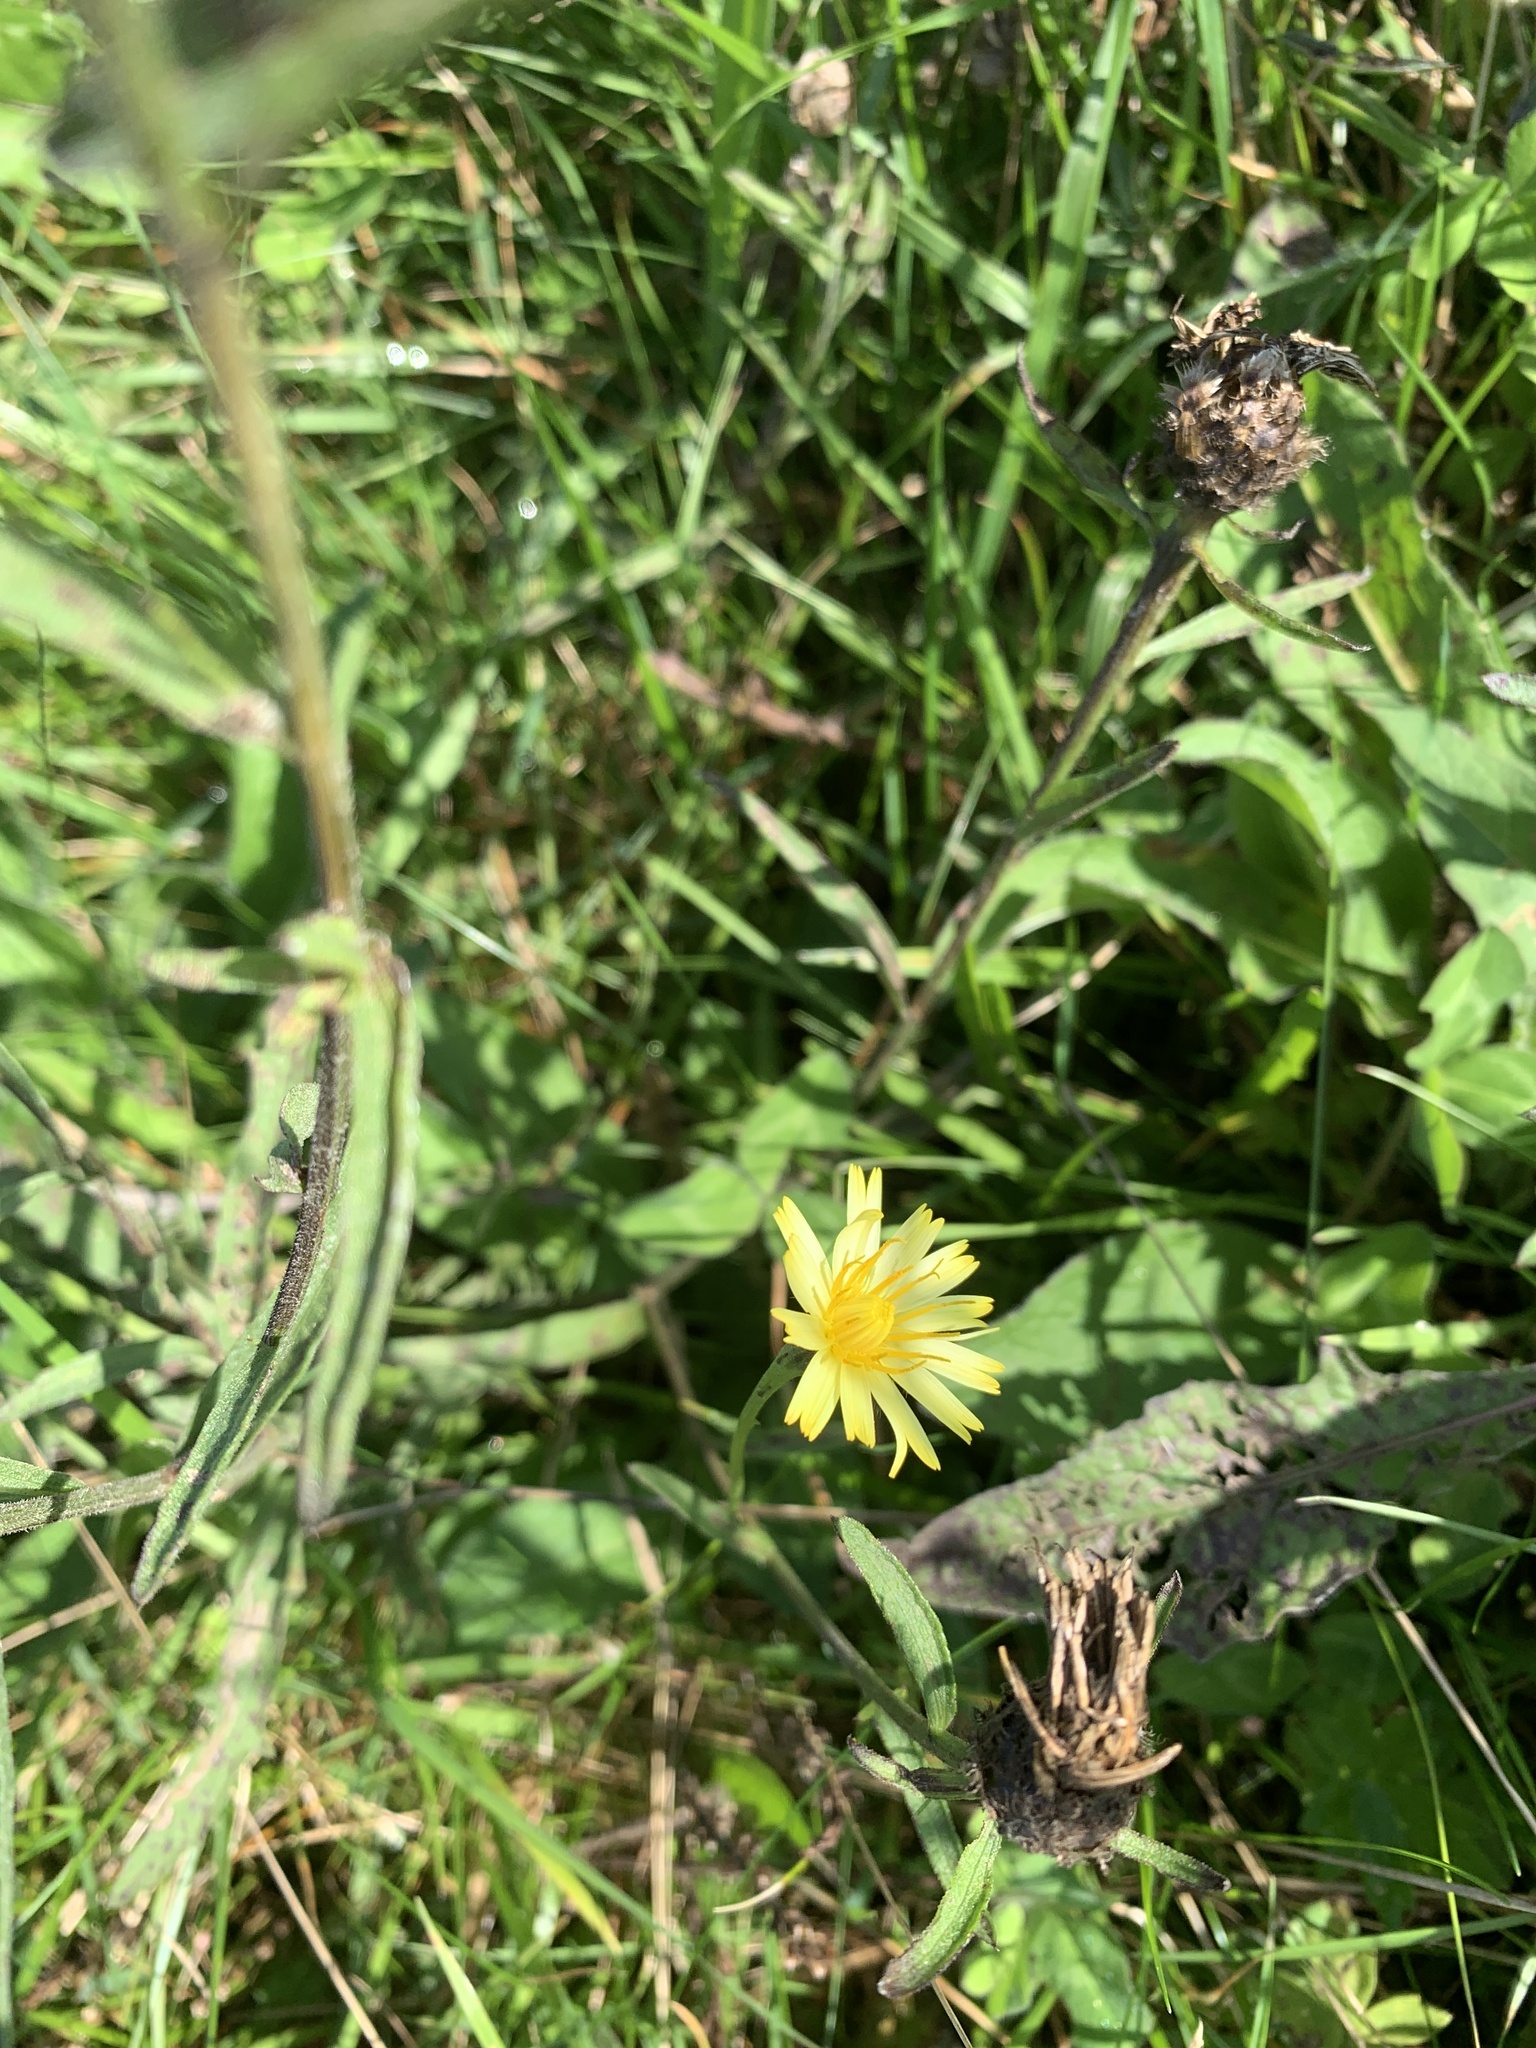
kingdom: Plantae
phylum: Tracheophyta
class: Magnoliopsida
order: Asterales
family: Asteraceae
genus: Helminthotheca
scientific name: Helminthotheca echioides
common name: Ox-tongue
